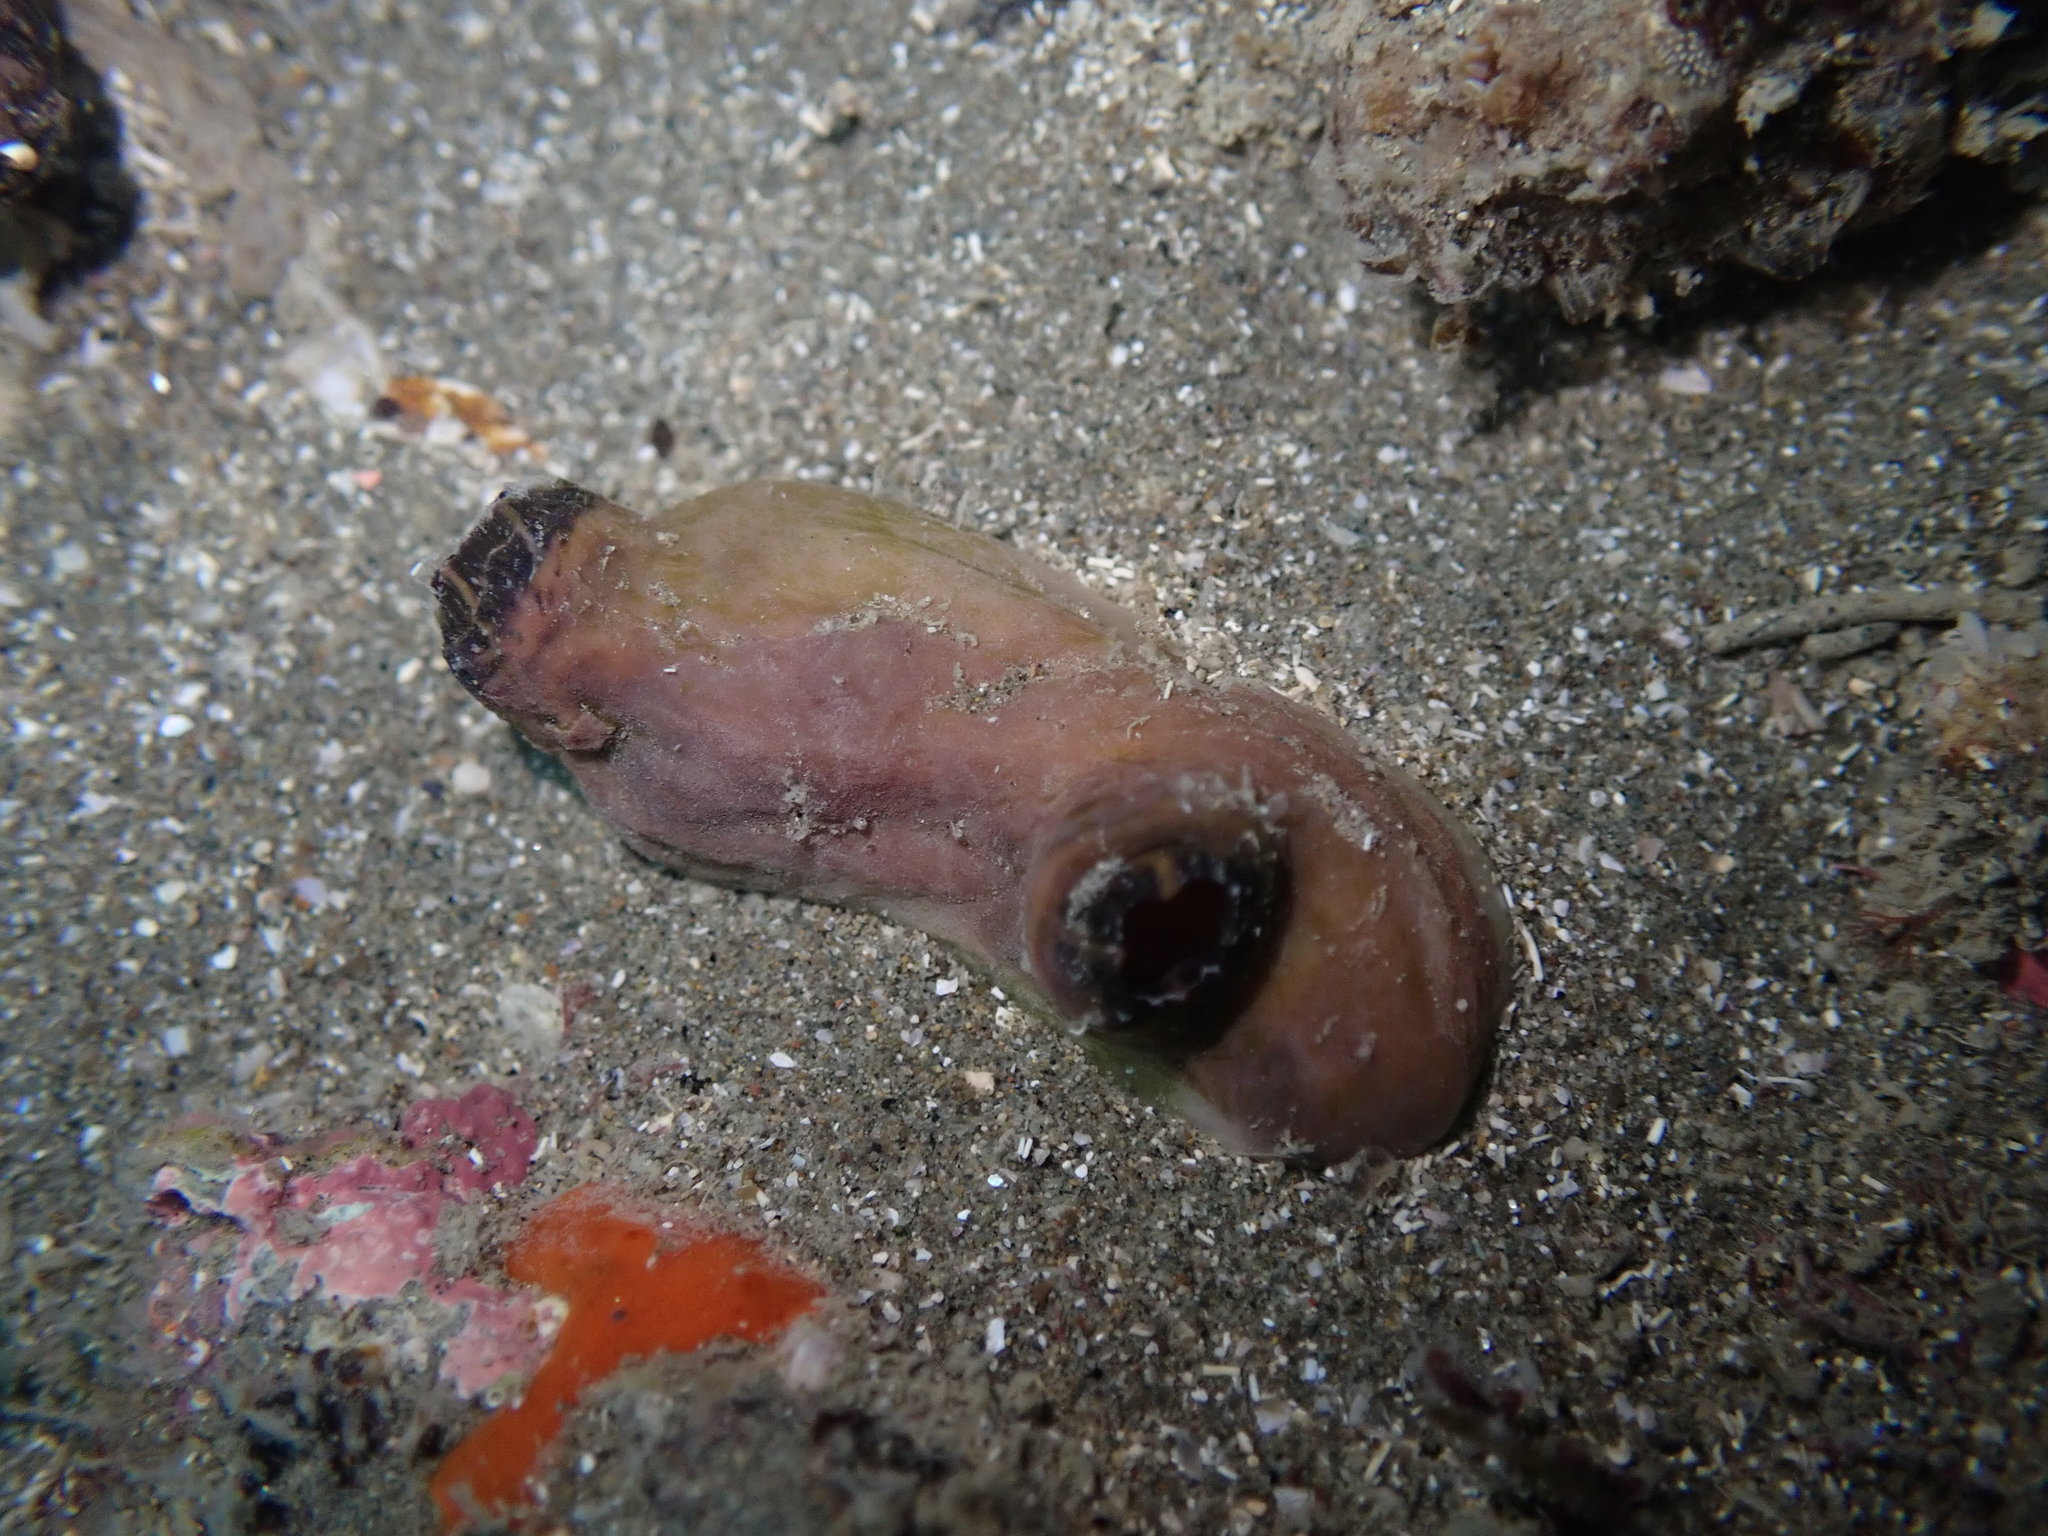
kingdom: Animalia
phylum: Chordata
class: Ascidiacea
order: Stolidobranchia
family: Styelidae
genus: Asterocarpa
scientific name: Asterocarpa coerulea
